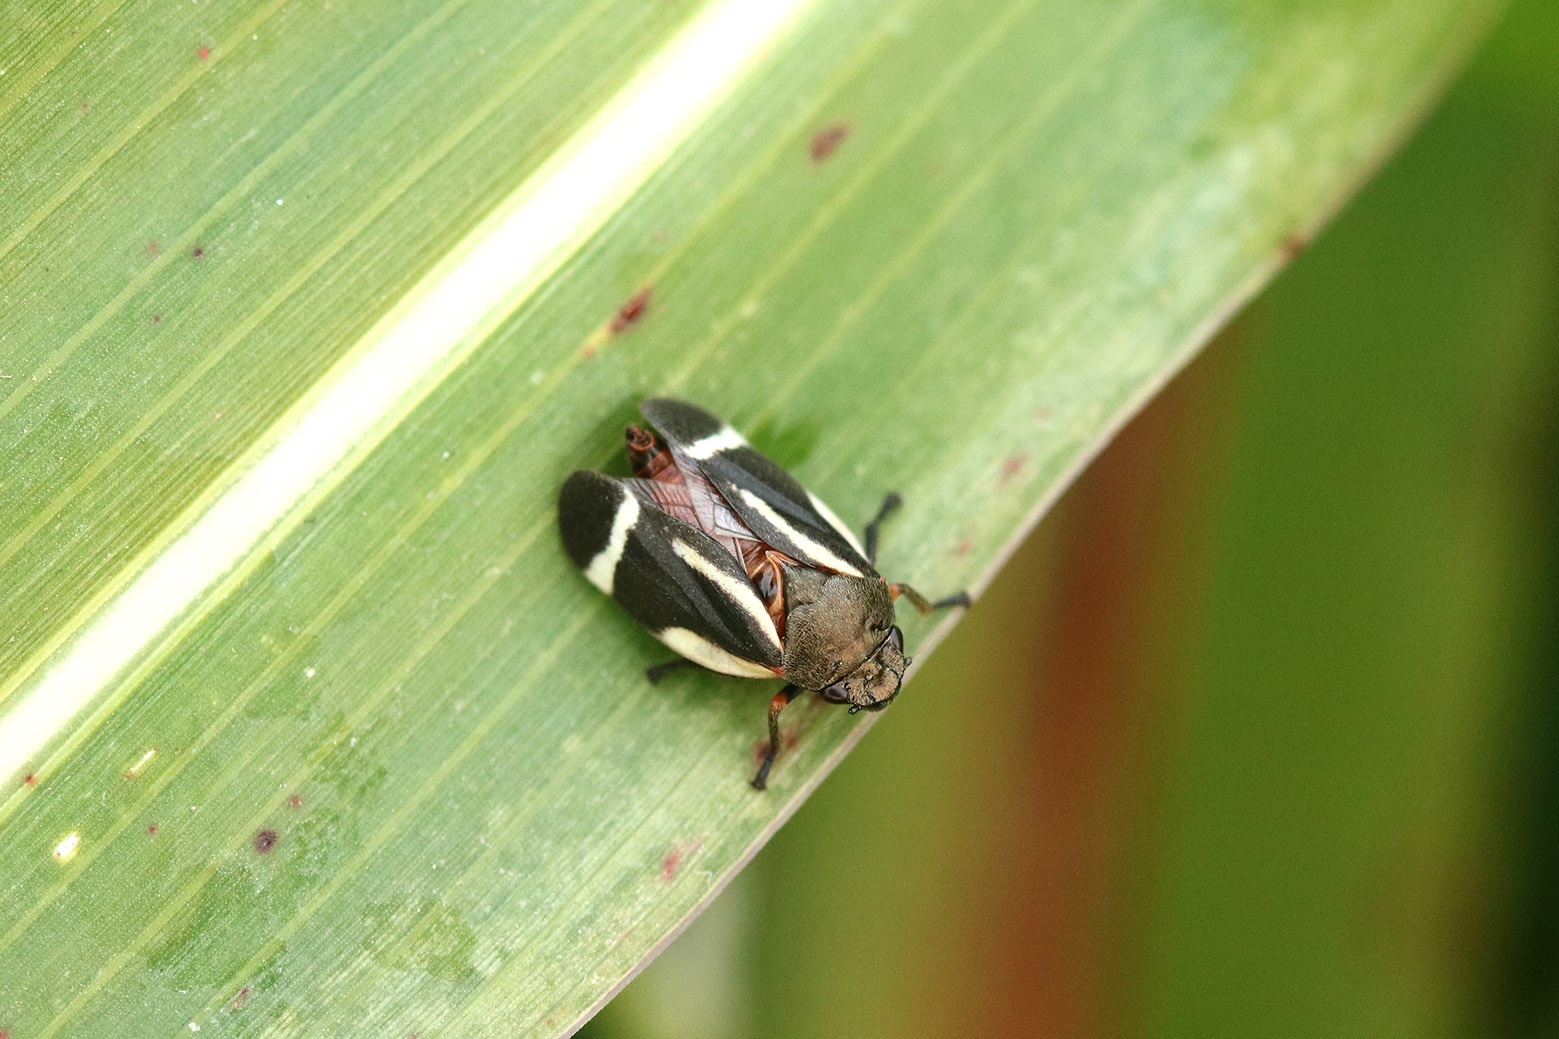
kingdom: Animalia
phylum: Arthropoda
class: Insecta
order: Hemiptera
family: Cercopidae
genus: Notozulia
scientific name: Notozulia entreriana
